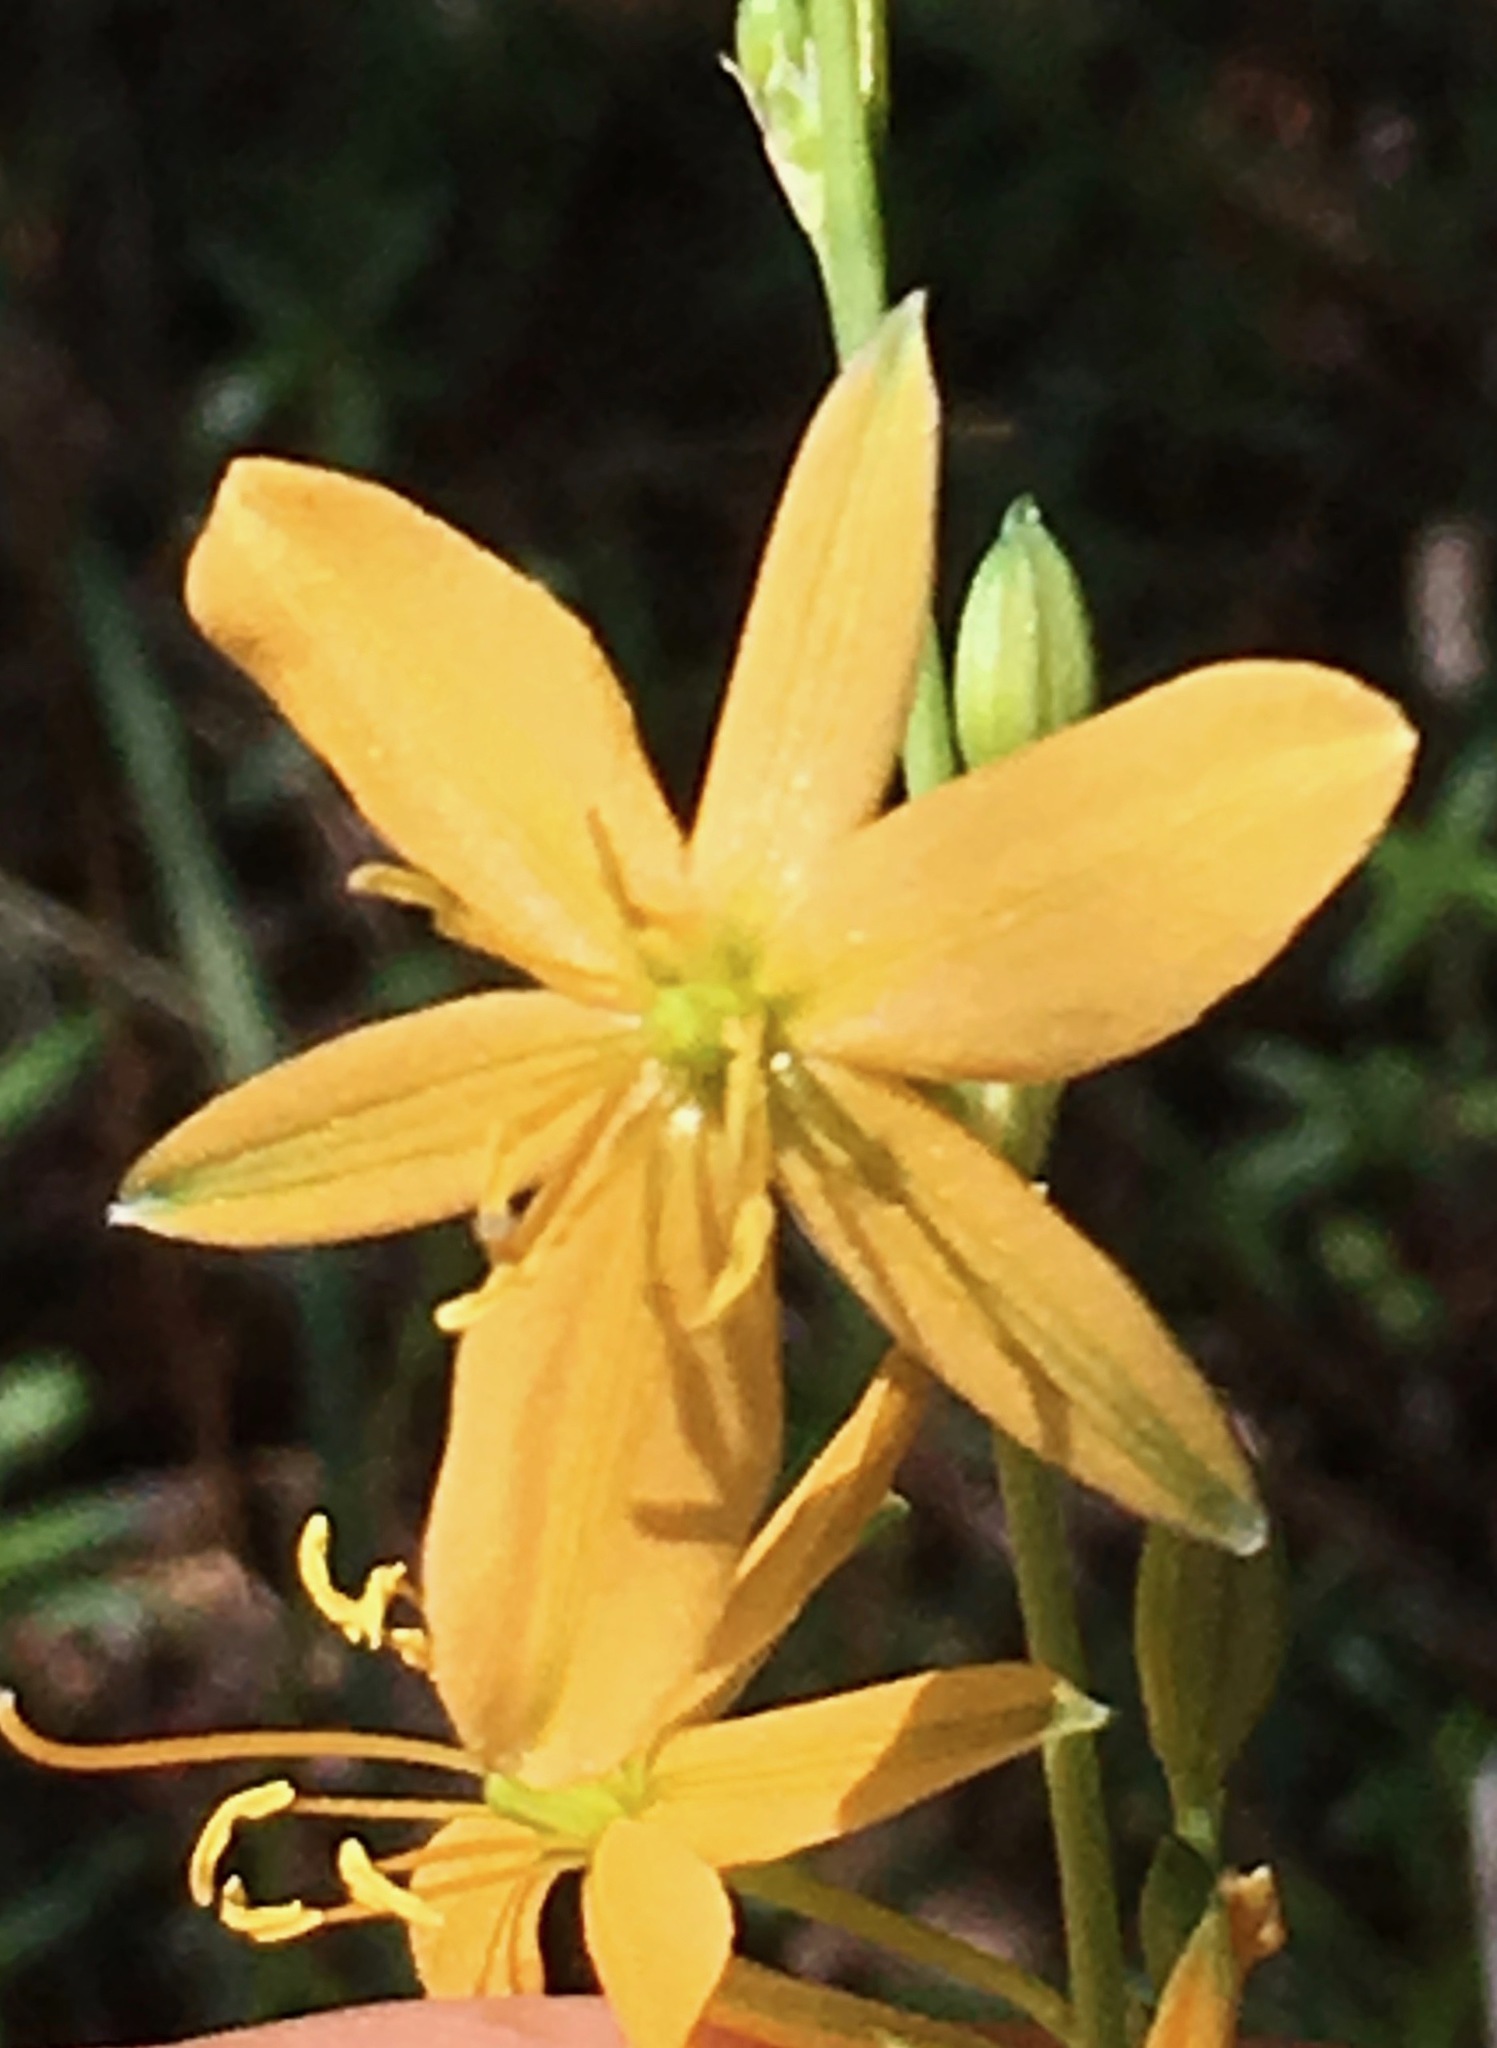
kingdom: Plantae
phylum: Tracheophyta
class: Liliopsida
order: Asparagales
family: Asparagaceae
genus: Echeandia
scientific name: Echeandia flavescens
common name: Amberlily
